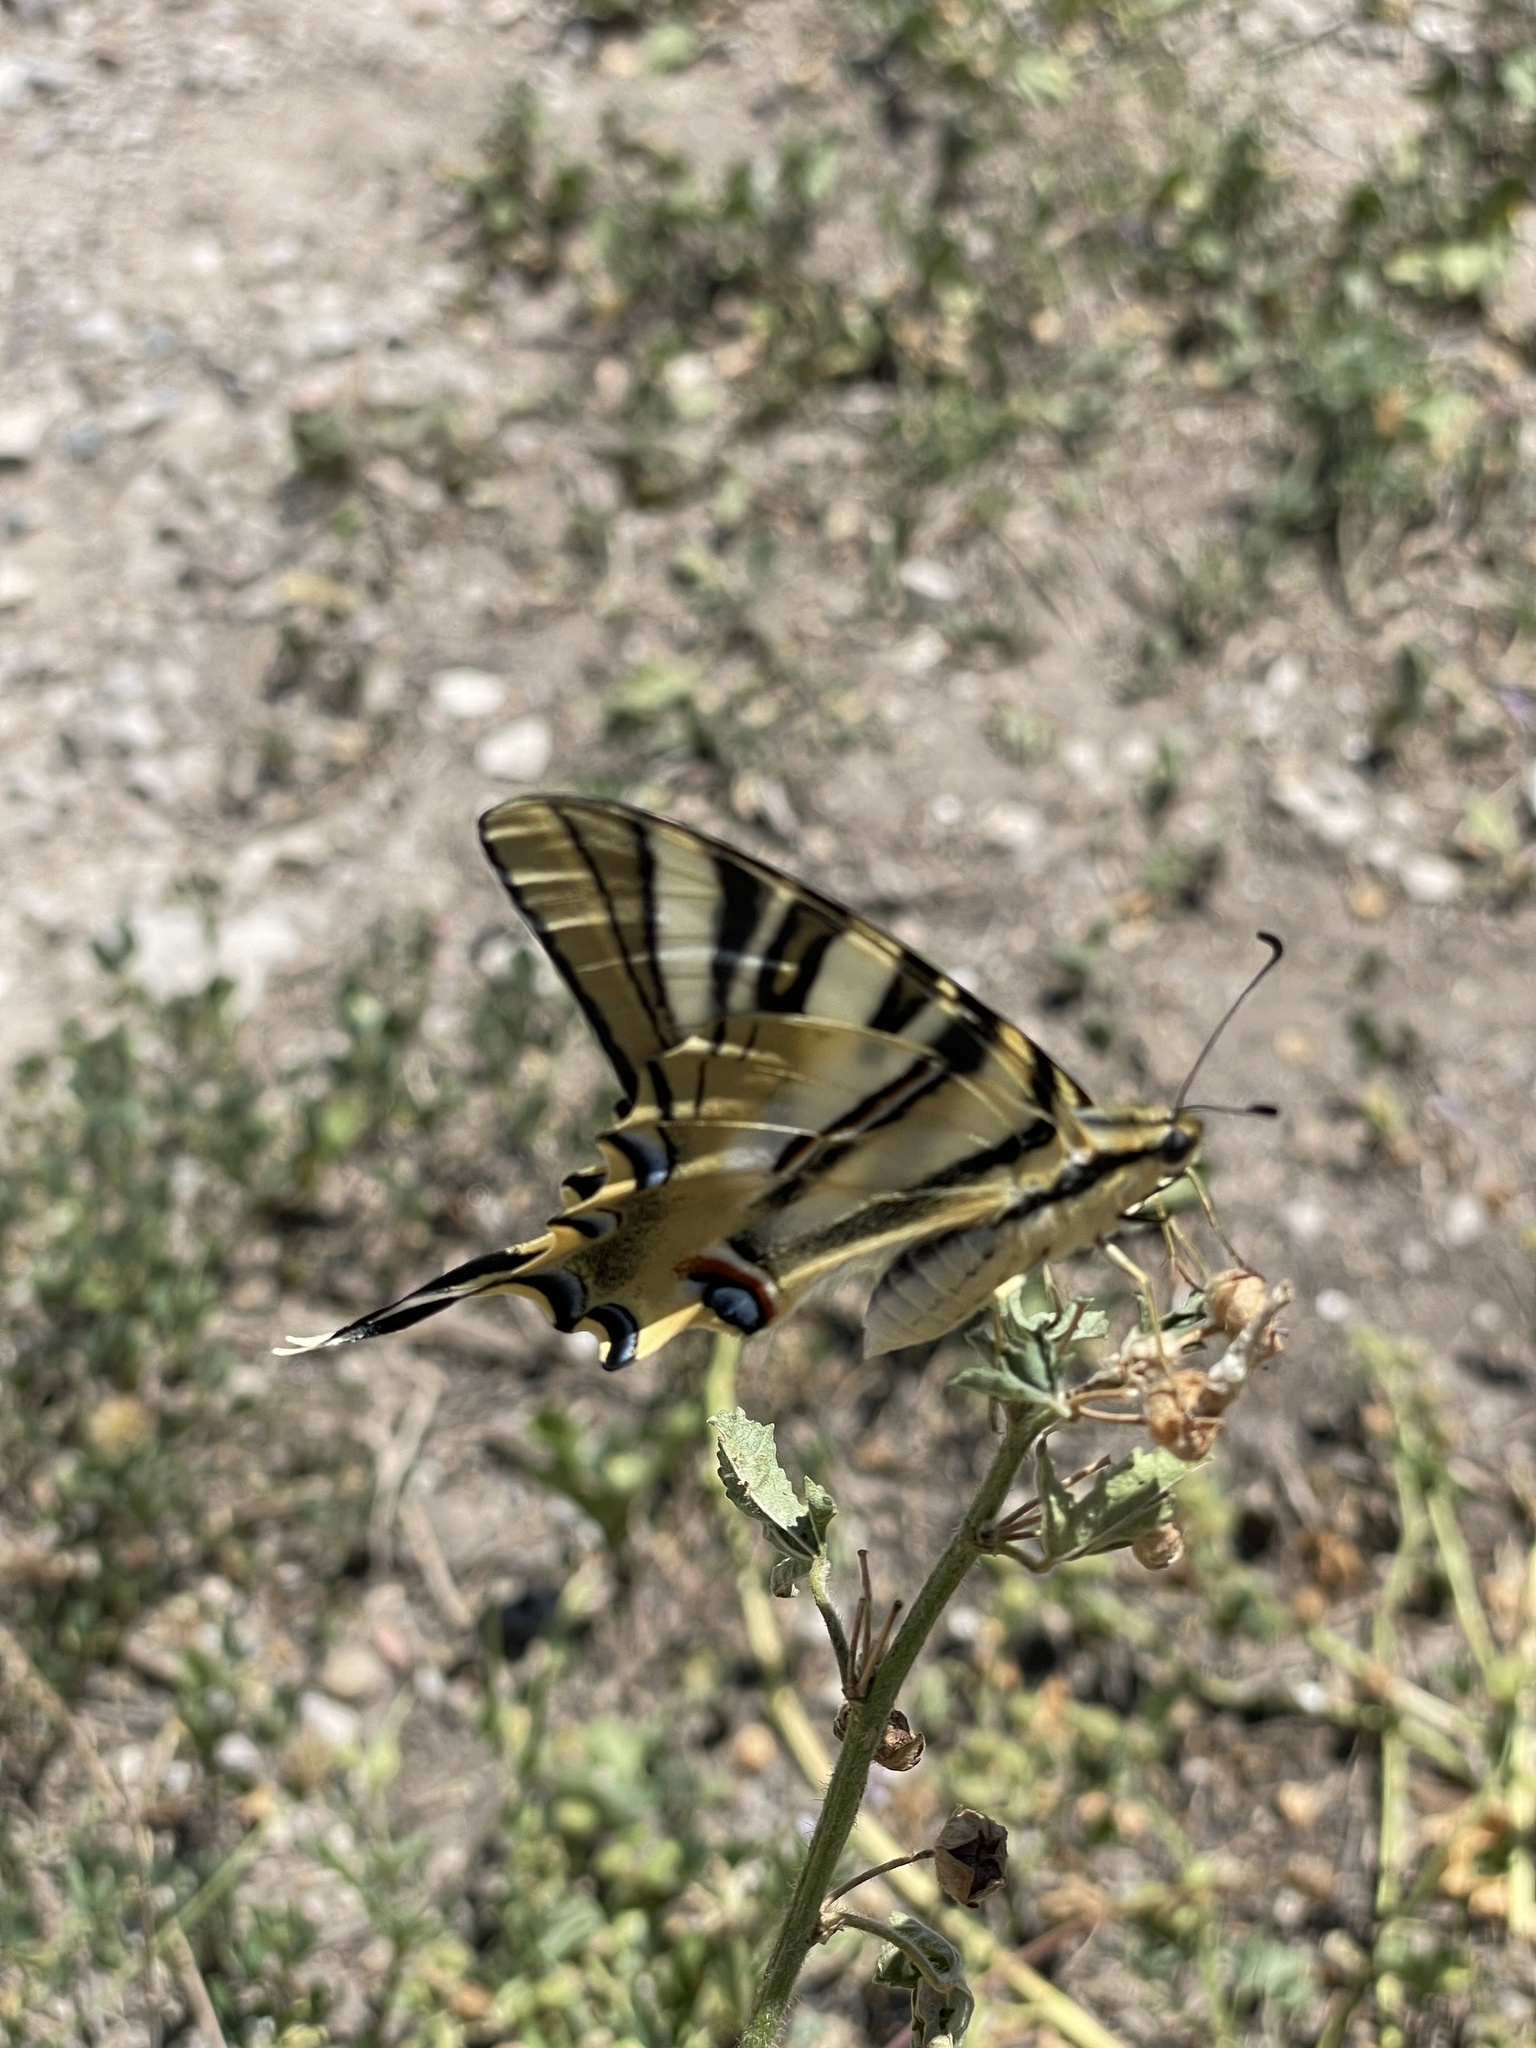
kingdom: Animalia
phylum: Arthropoda
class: Insecta
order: Lepidoptera
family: Papilionidae
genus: Iphiclides
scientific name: Iphiclides feisthamelii
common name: Iberian scarce swallowtail
